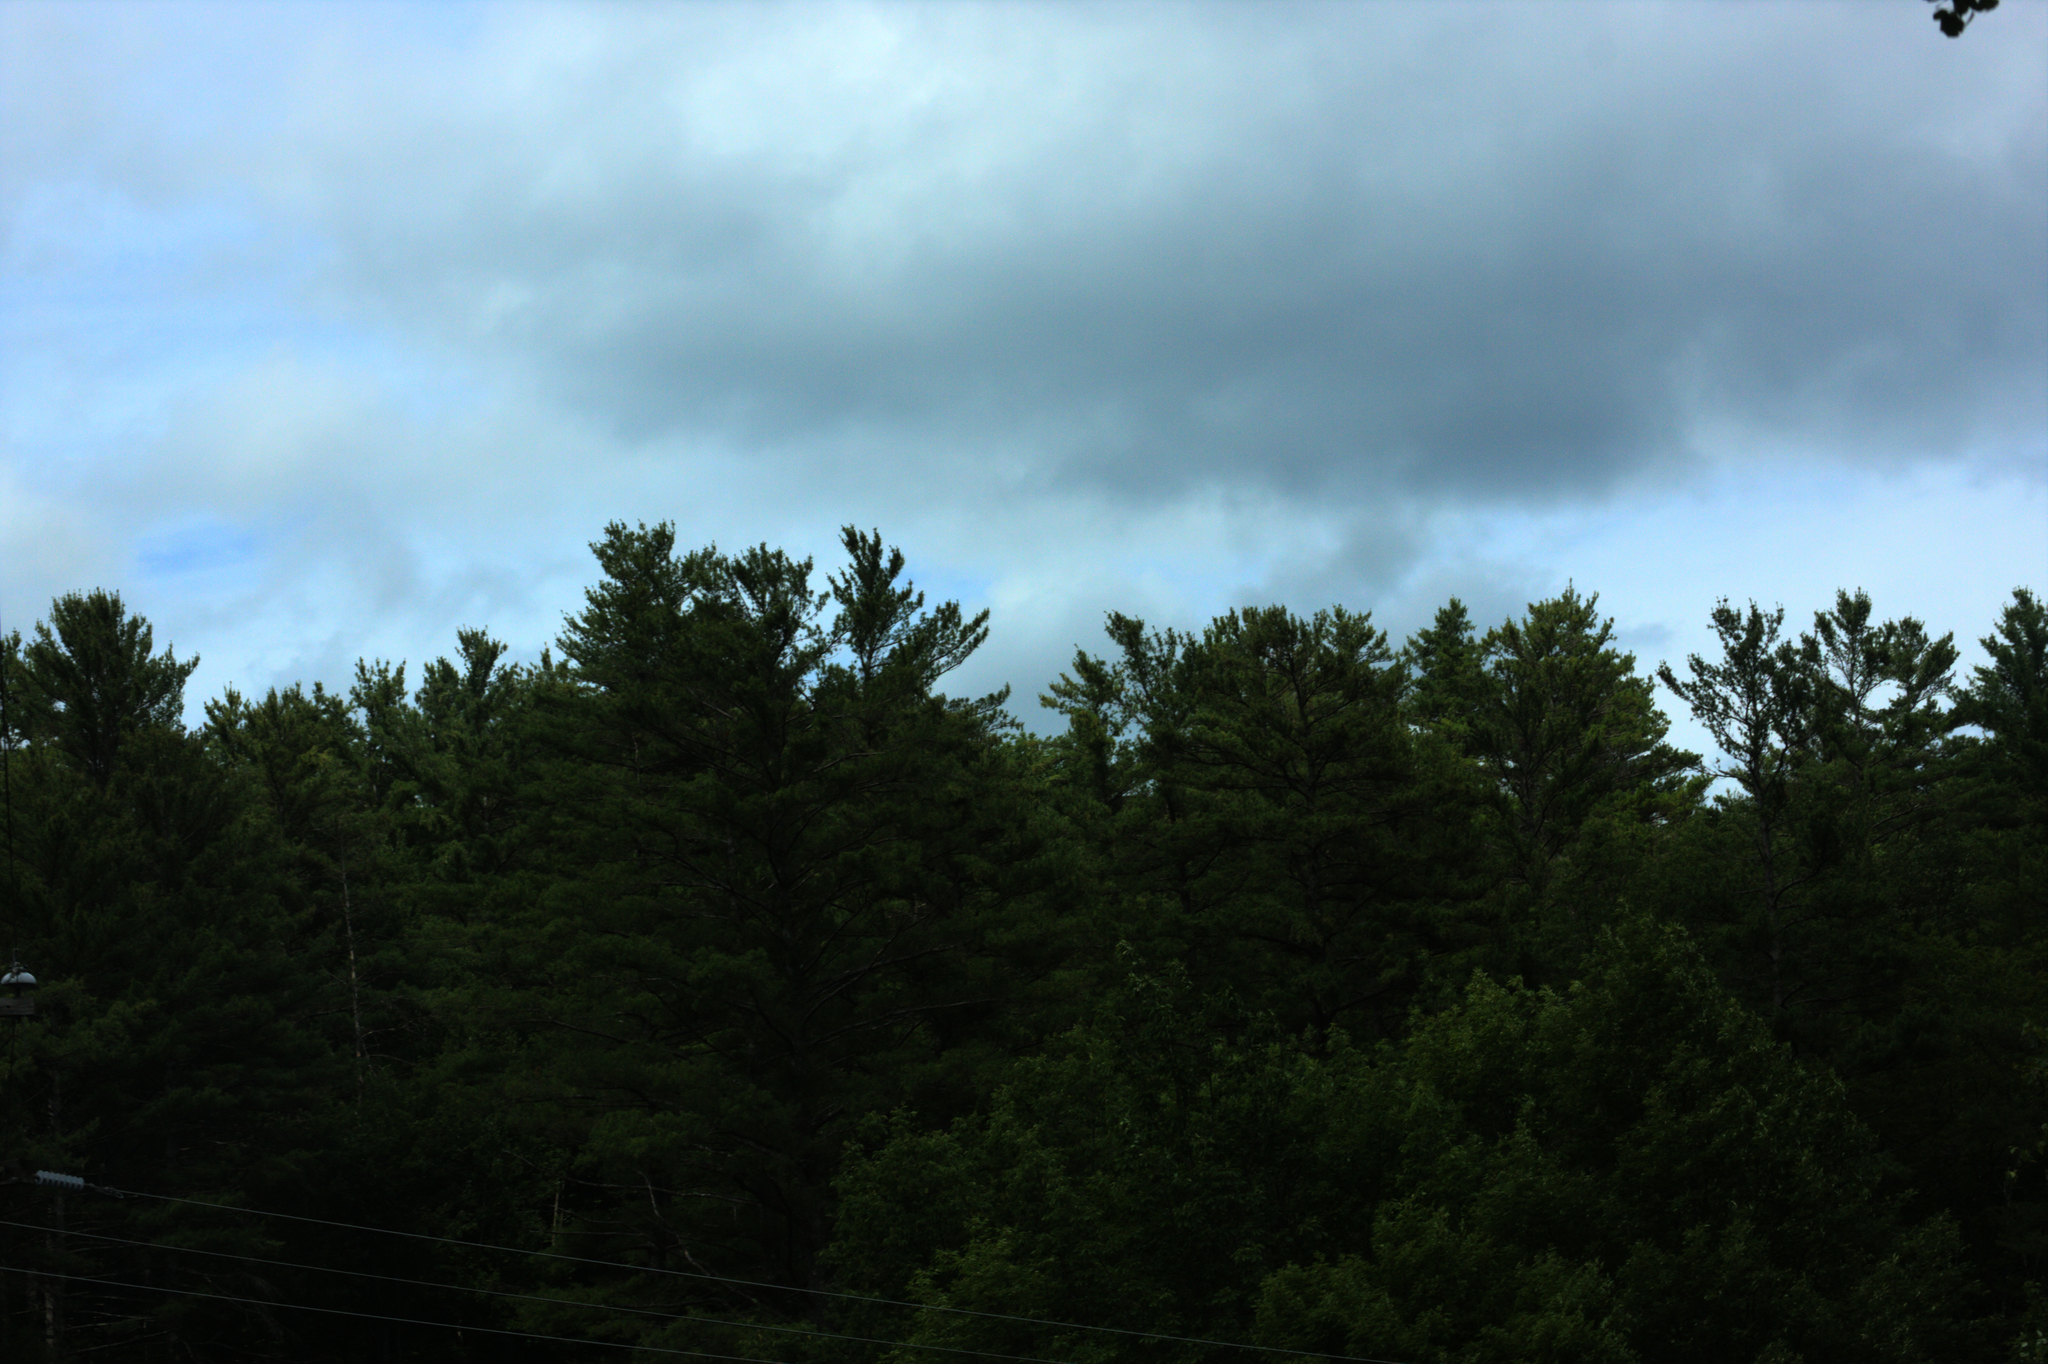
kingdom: Plantae
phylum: Tracheophyta
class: Pinopsida
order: Pinales
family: Pinaceae
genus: Pinus
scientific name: Pinus strobus
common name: Weymouth pine
